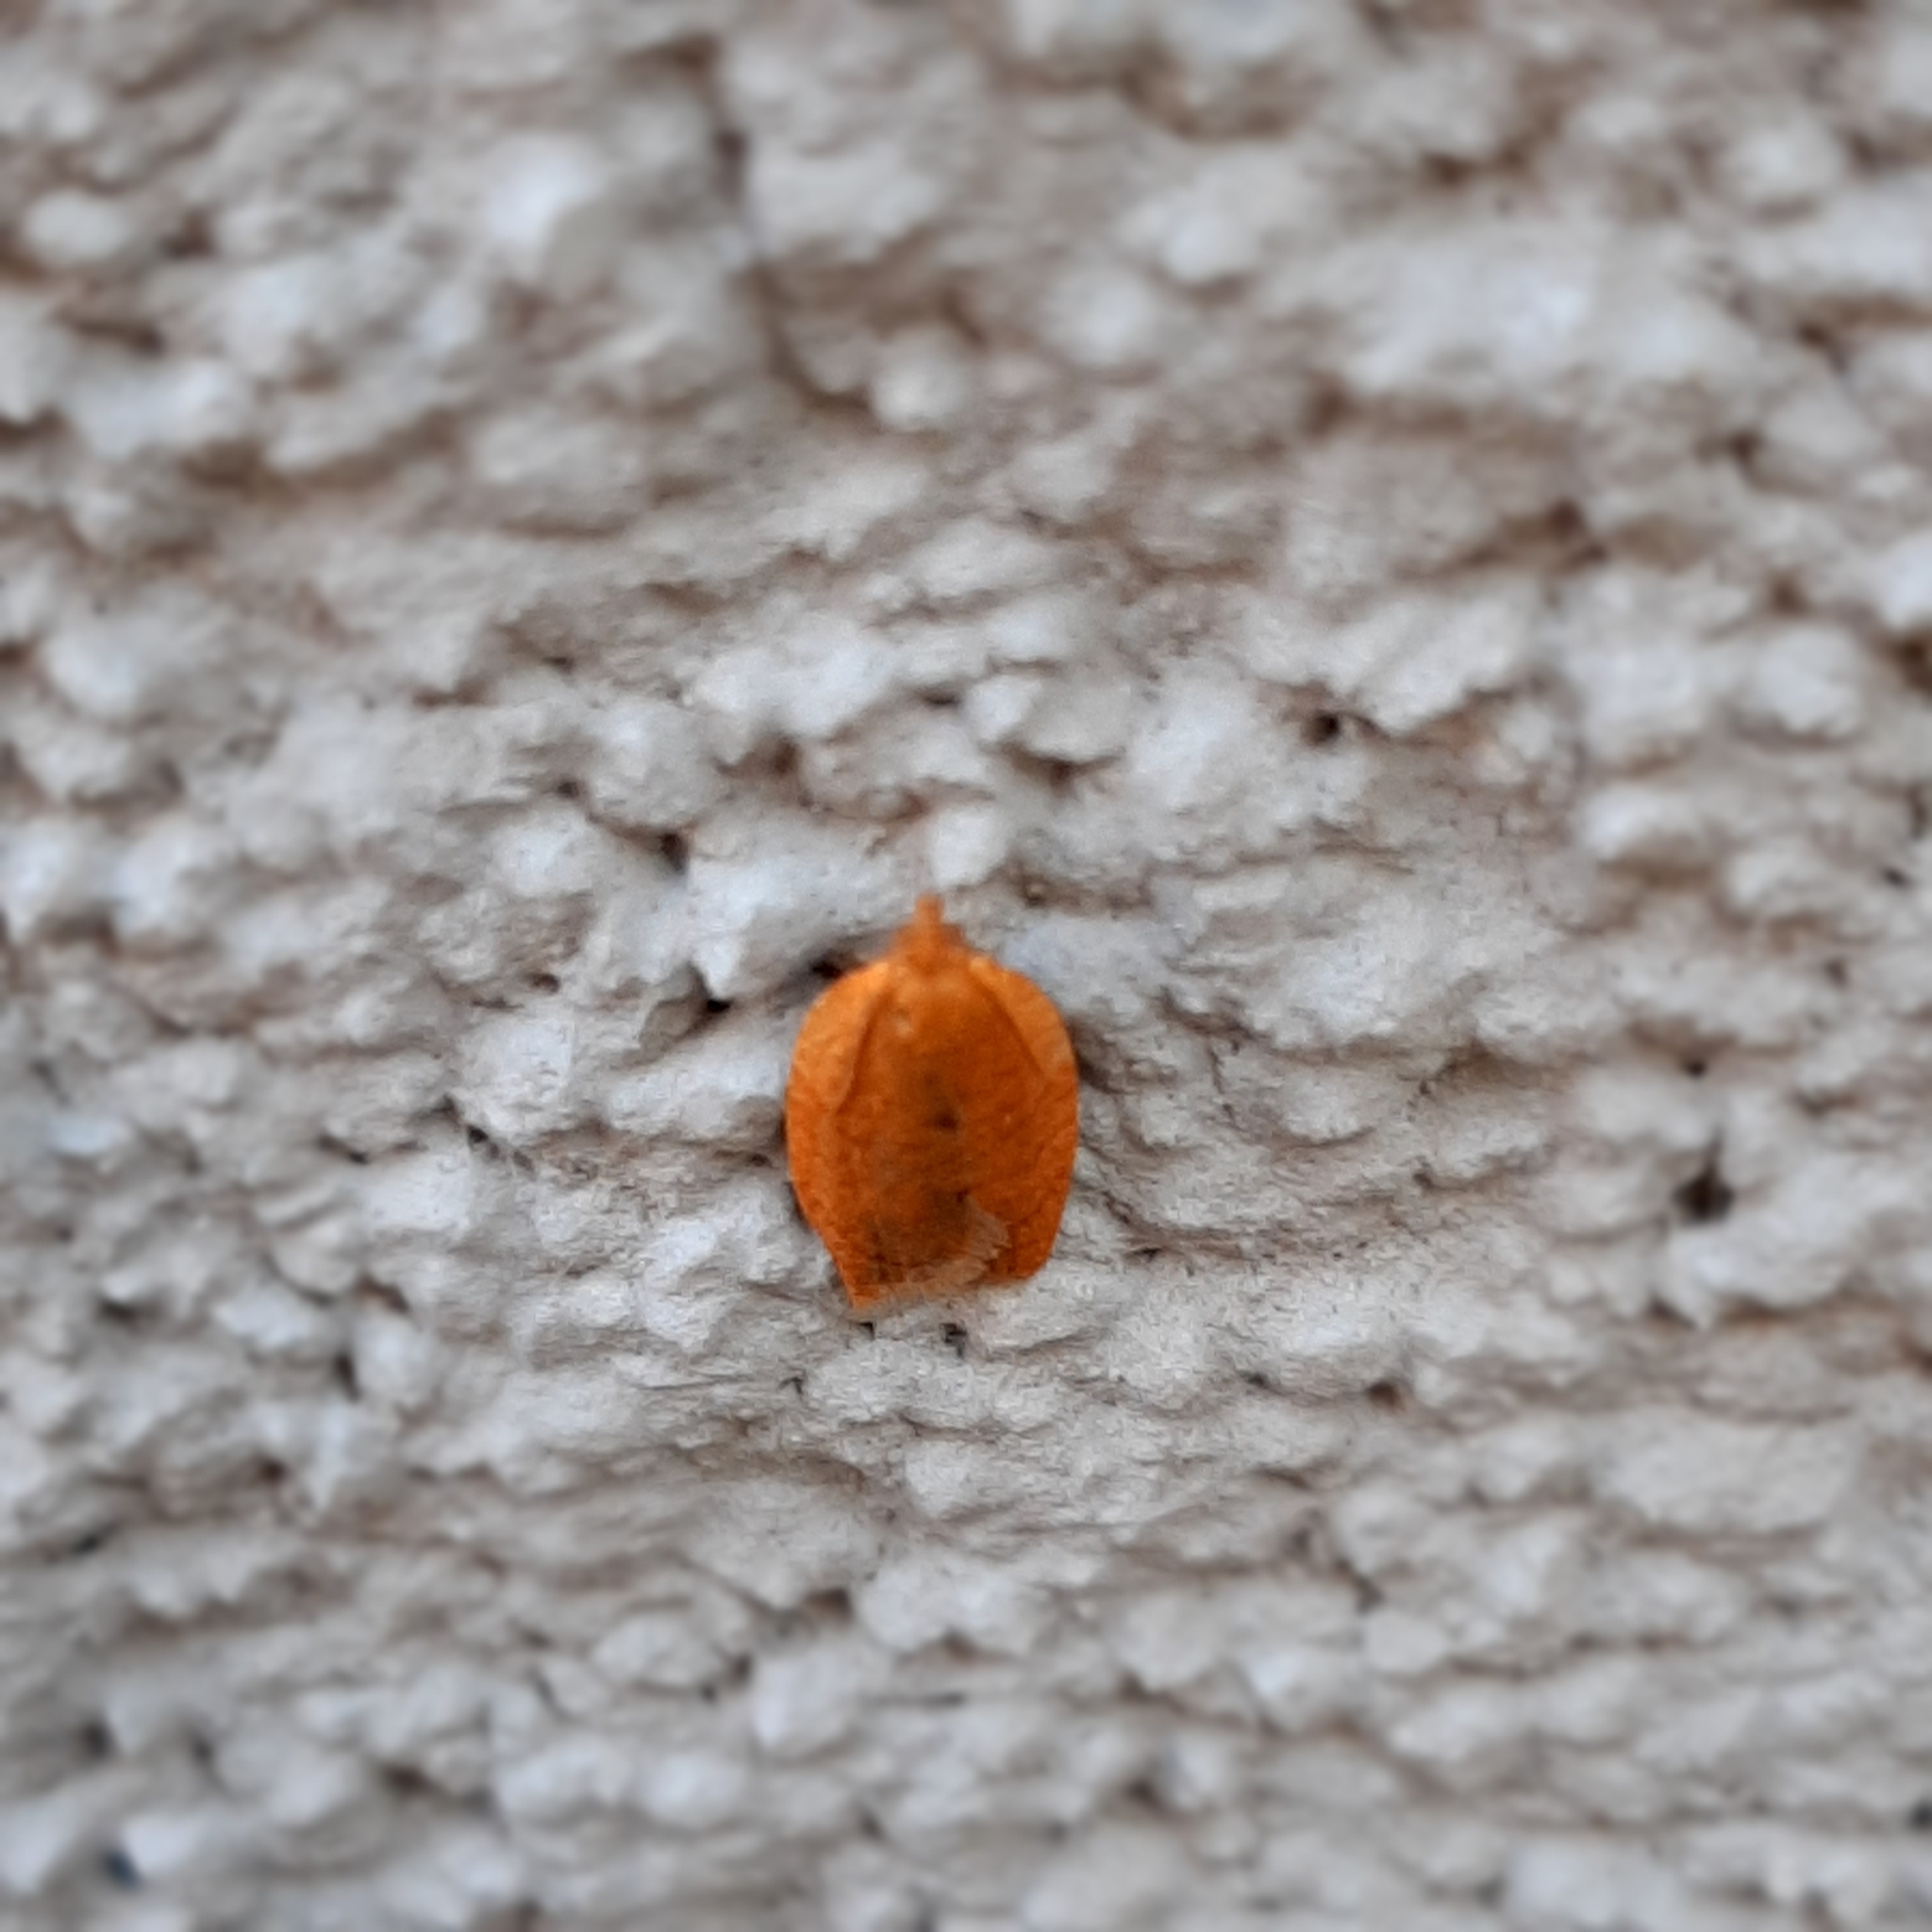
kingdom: Animalia
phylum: Arthropoda
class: Insecta
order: Lepidoptera
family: Tortricidae
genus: Clepsis
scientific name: Clepsis consimilana
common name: Privet tortrix
